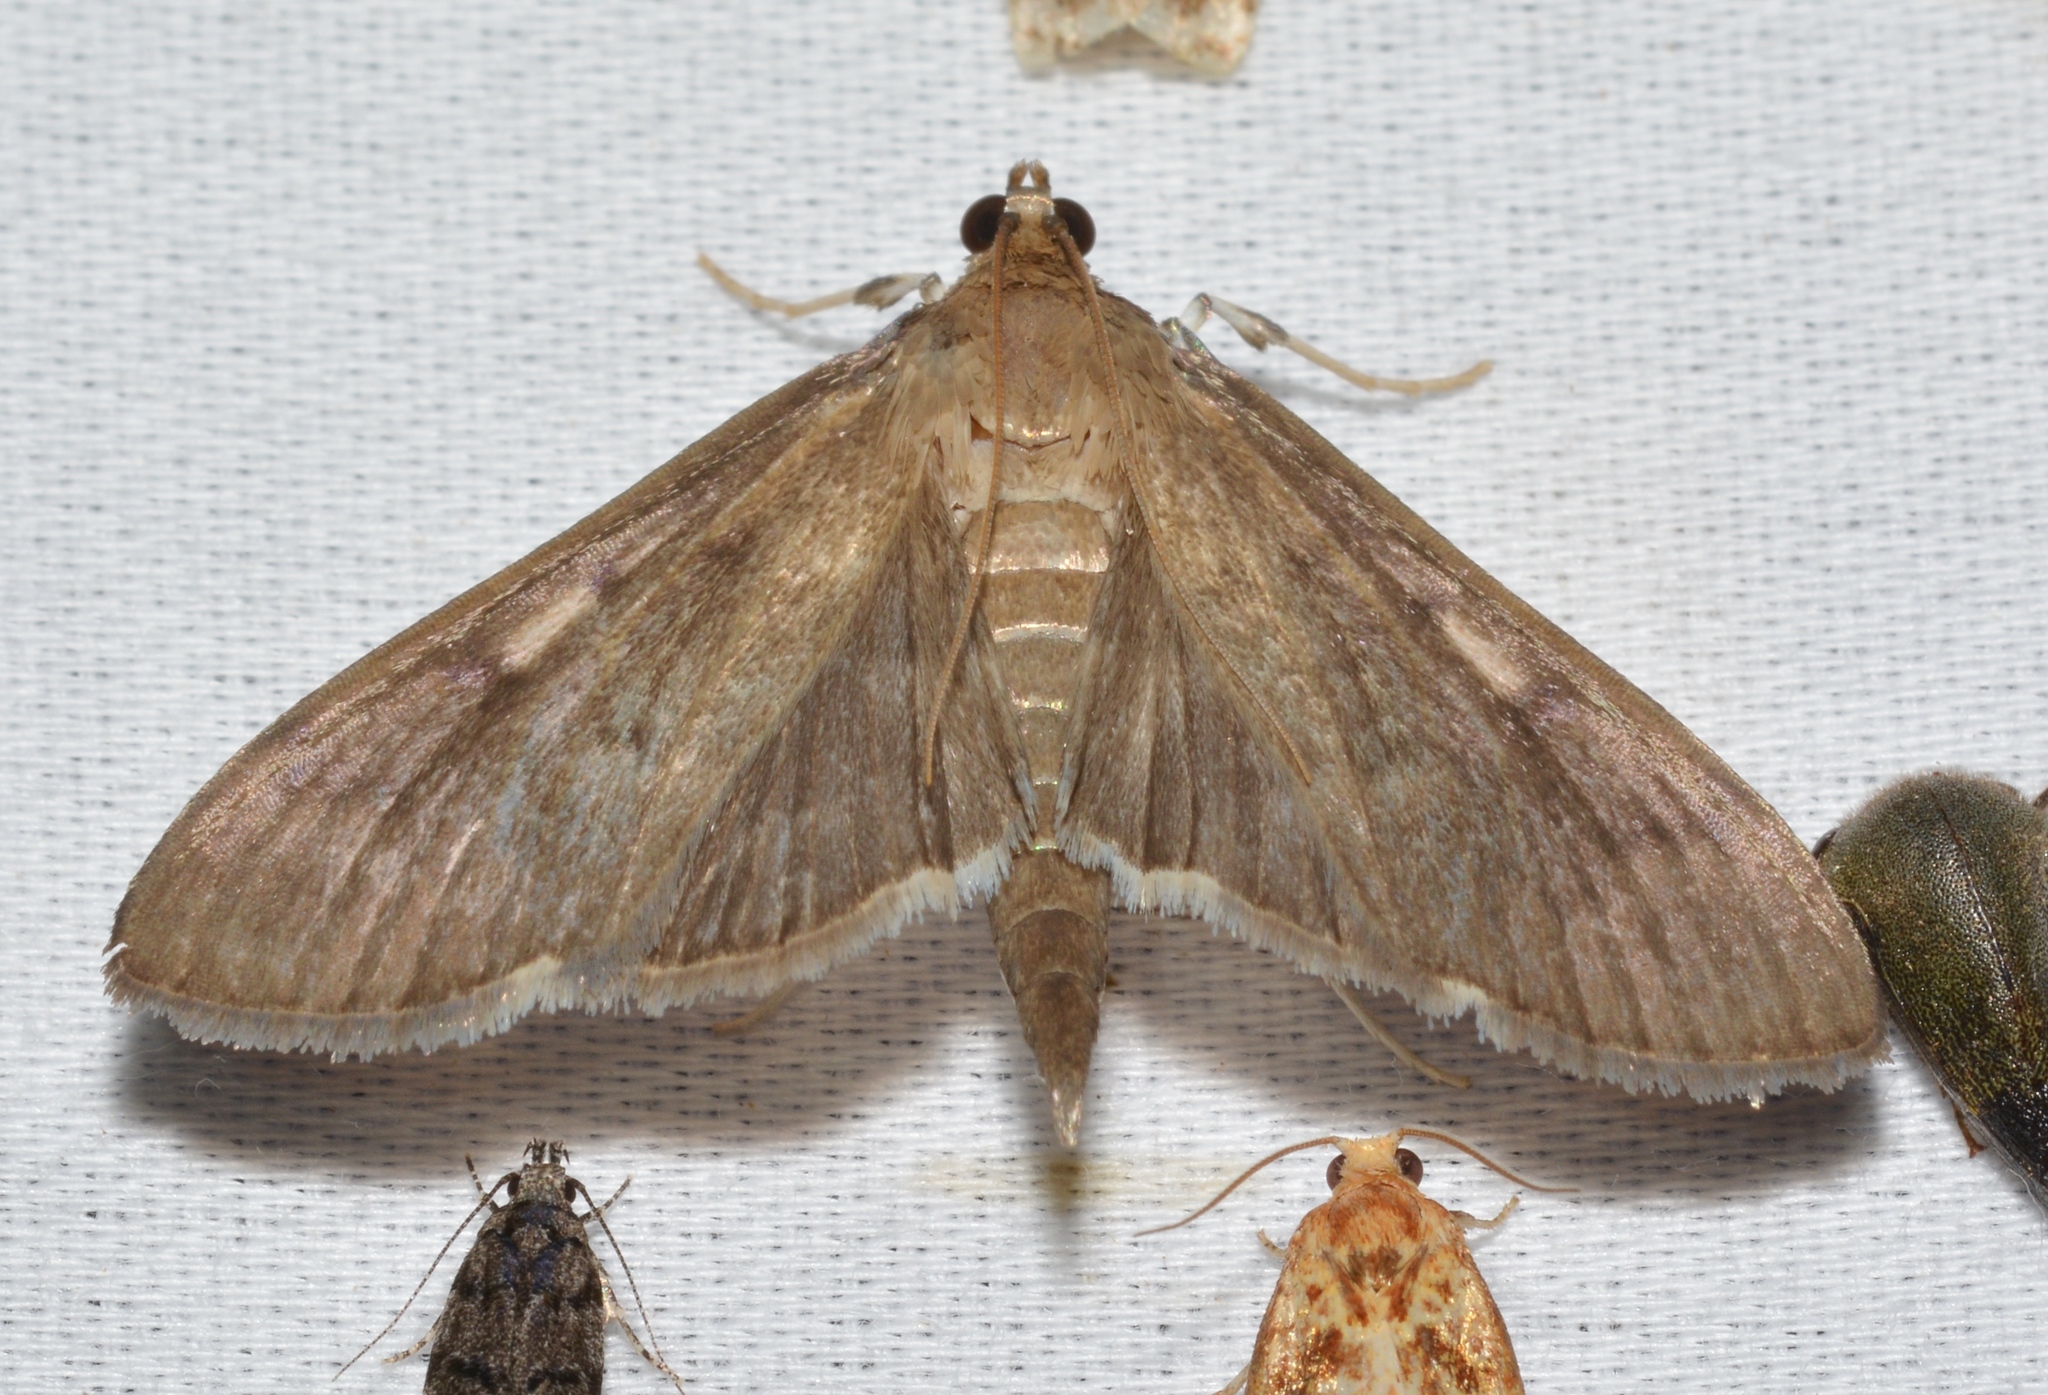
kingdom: Animalia
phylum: Arthropoda
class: Insecta
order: Lepidoptera
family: Crambidae
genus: Herpetogramma
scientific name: Herpetogramma sphingealis
